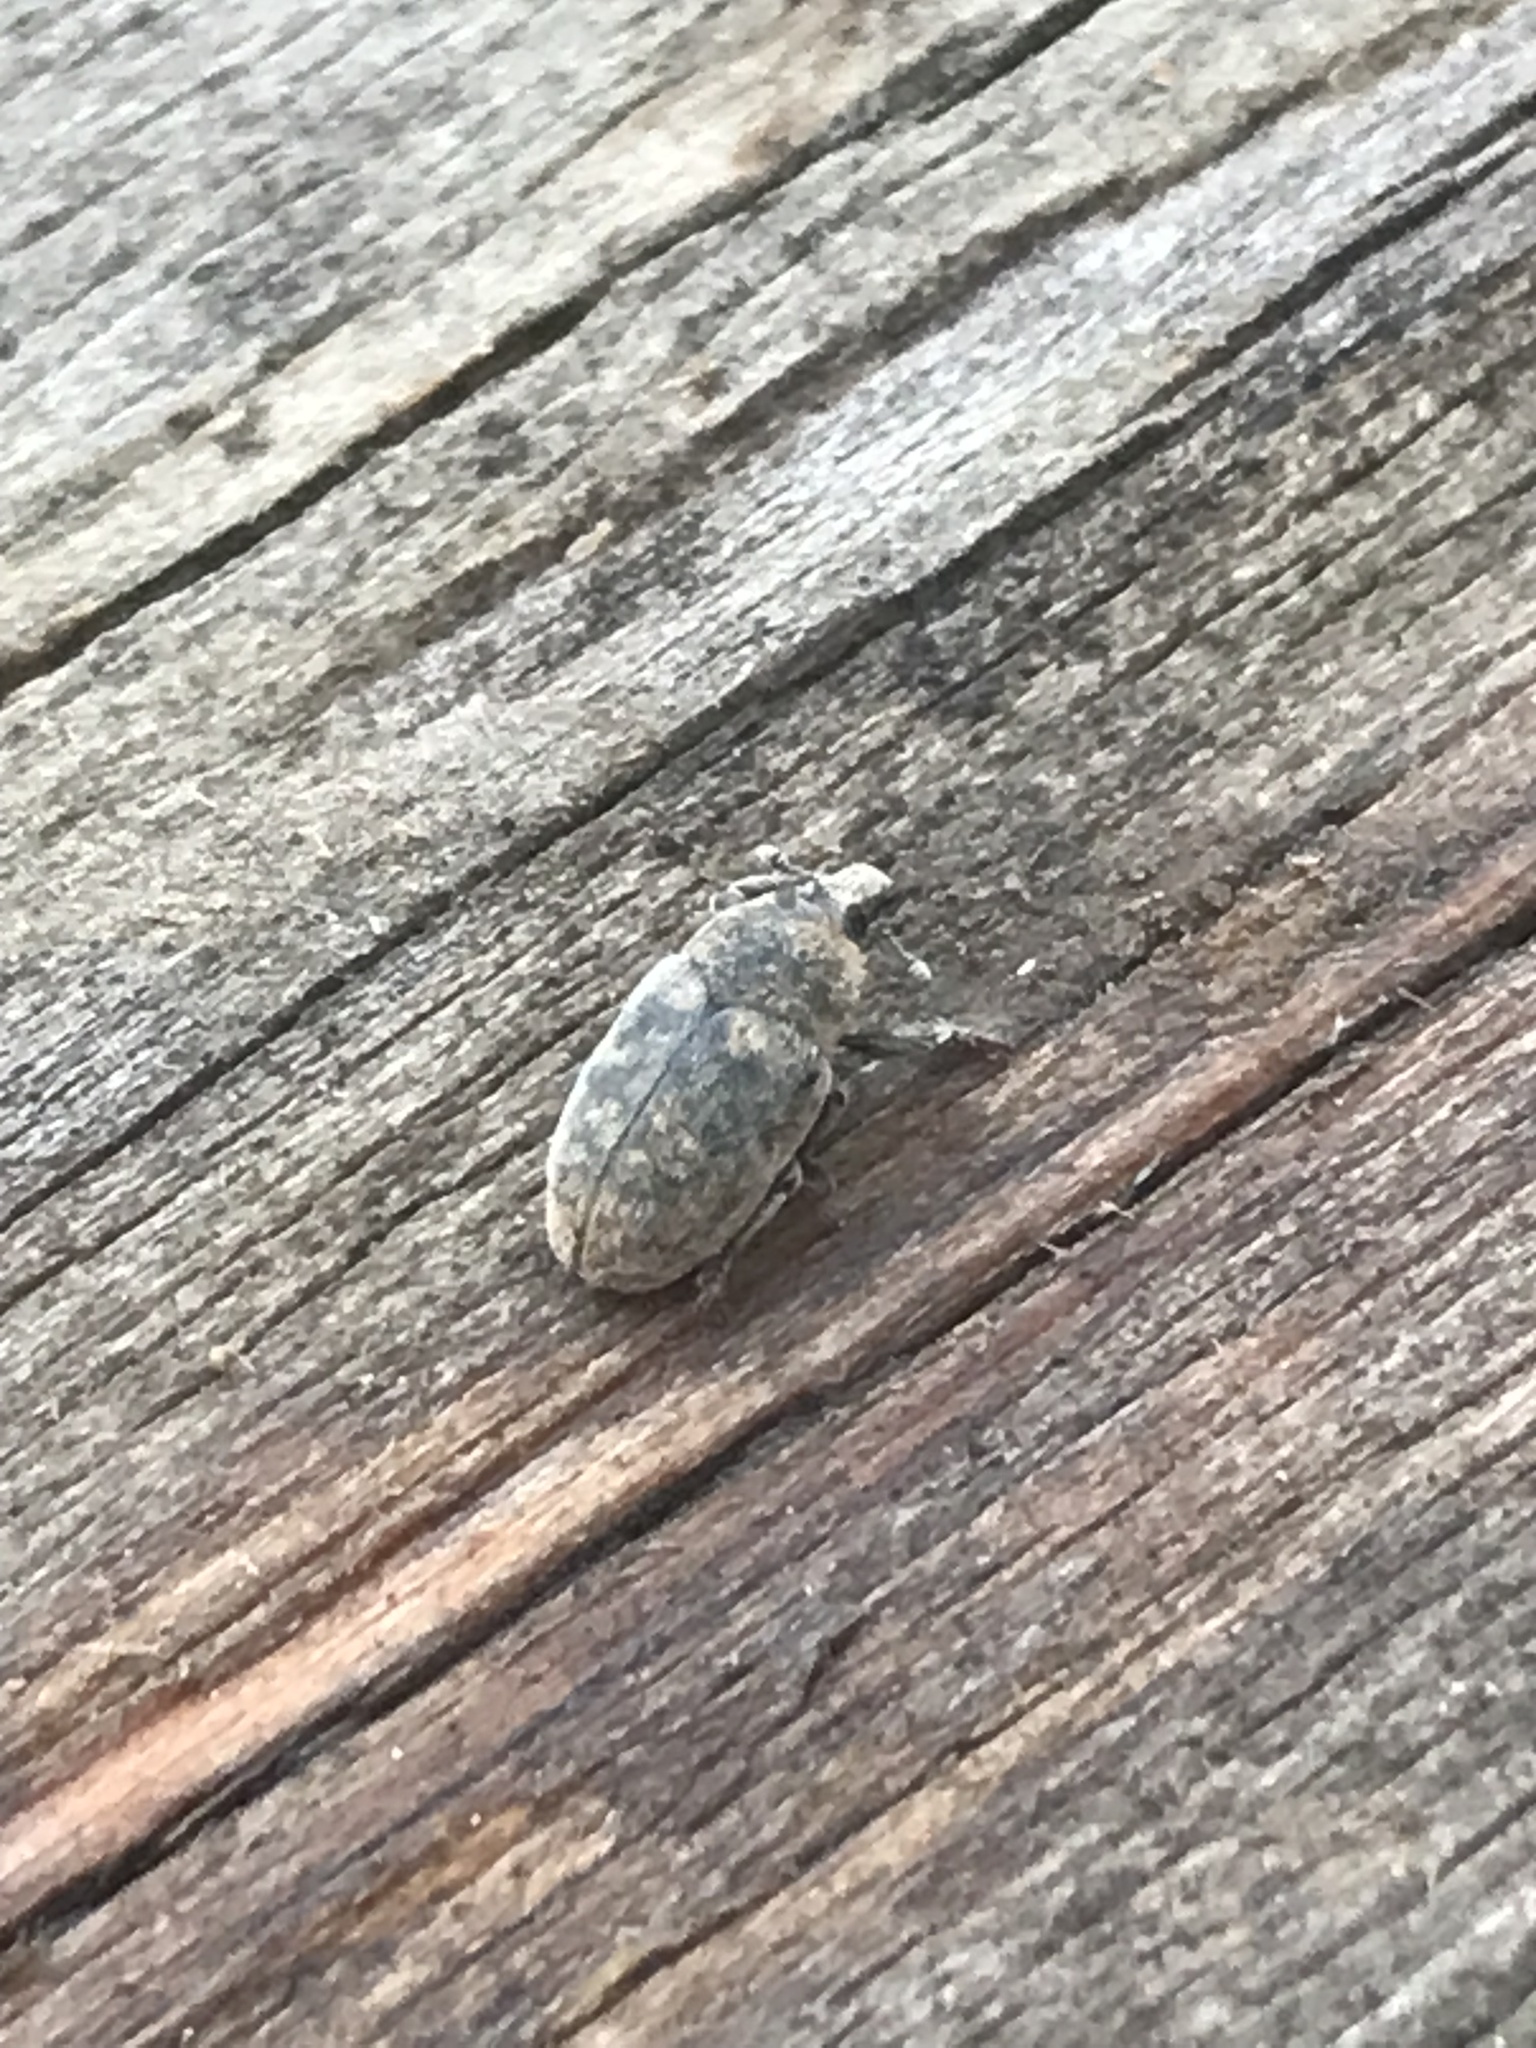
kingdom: Animalia
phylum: Arthropoda
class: Insecta
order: Coleoptera
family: Curculionidae
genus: Larinus
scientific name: Larinus obtusus
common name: Weevil
